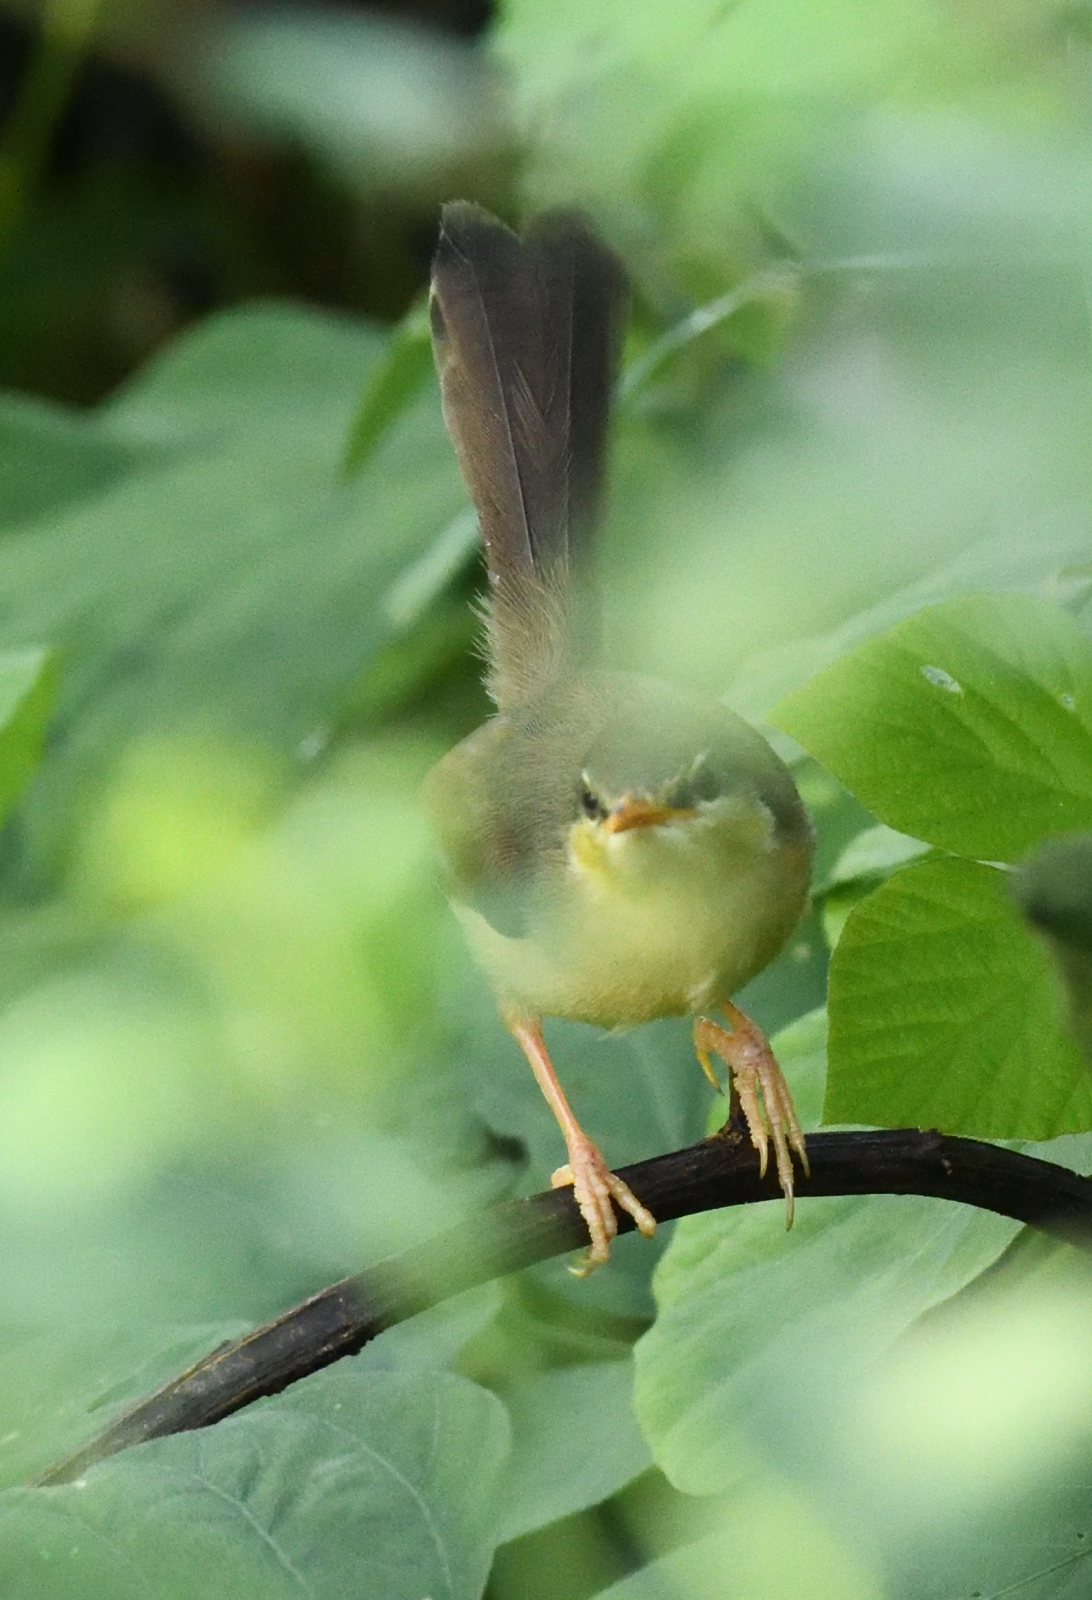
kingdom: Animalia
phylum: Chordata
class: Aves
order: Passeriformes
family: Cisticolidae
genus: Prinia
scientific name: Prinia socialis
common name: Ashy prinia
